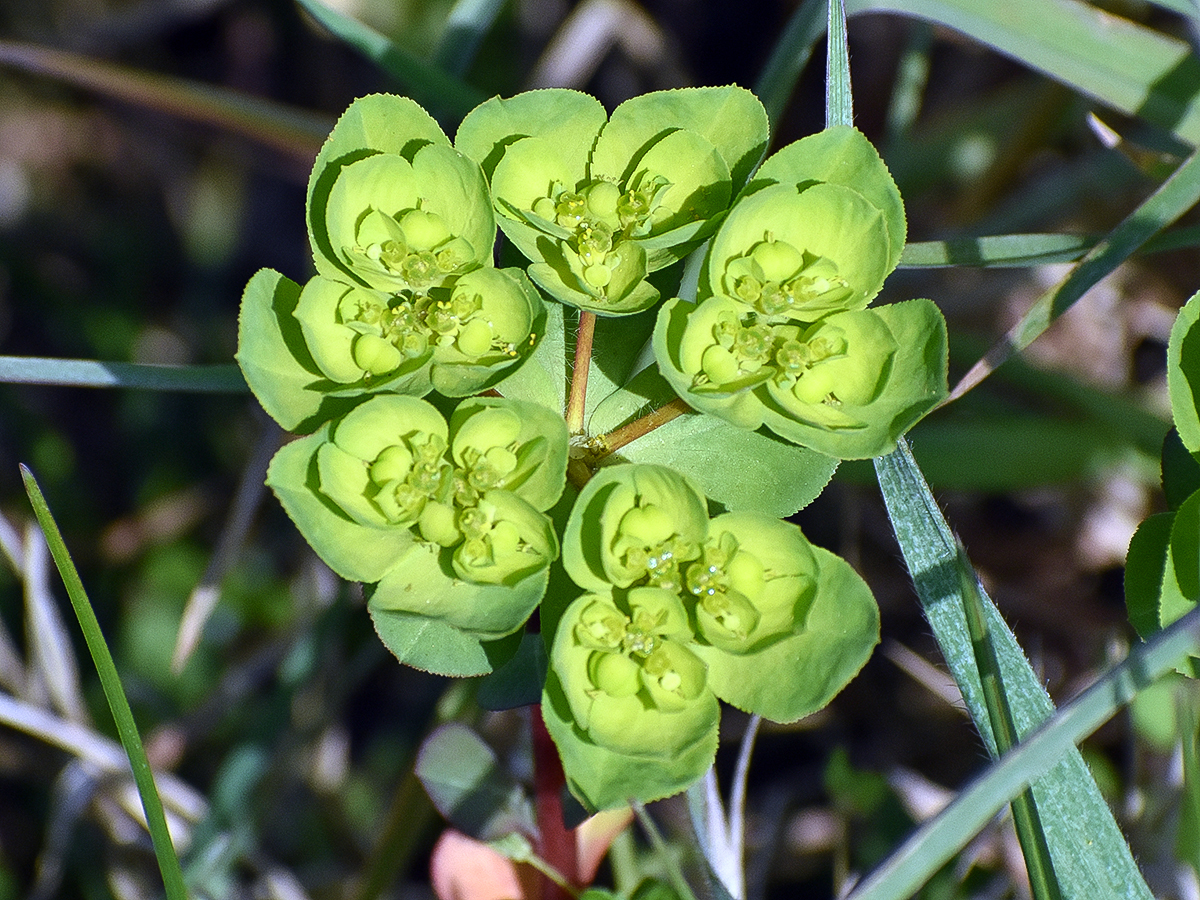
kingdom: Plantae
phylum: Tracheophyta
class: Magnoliopsida
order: Malpighiales
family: Euphorbiaceae
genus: Euphorbia
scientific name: Euphorbia helioscopia
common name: Sun spurge
